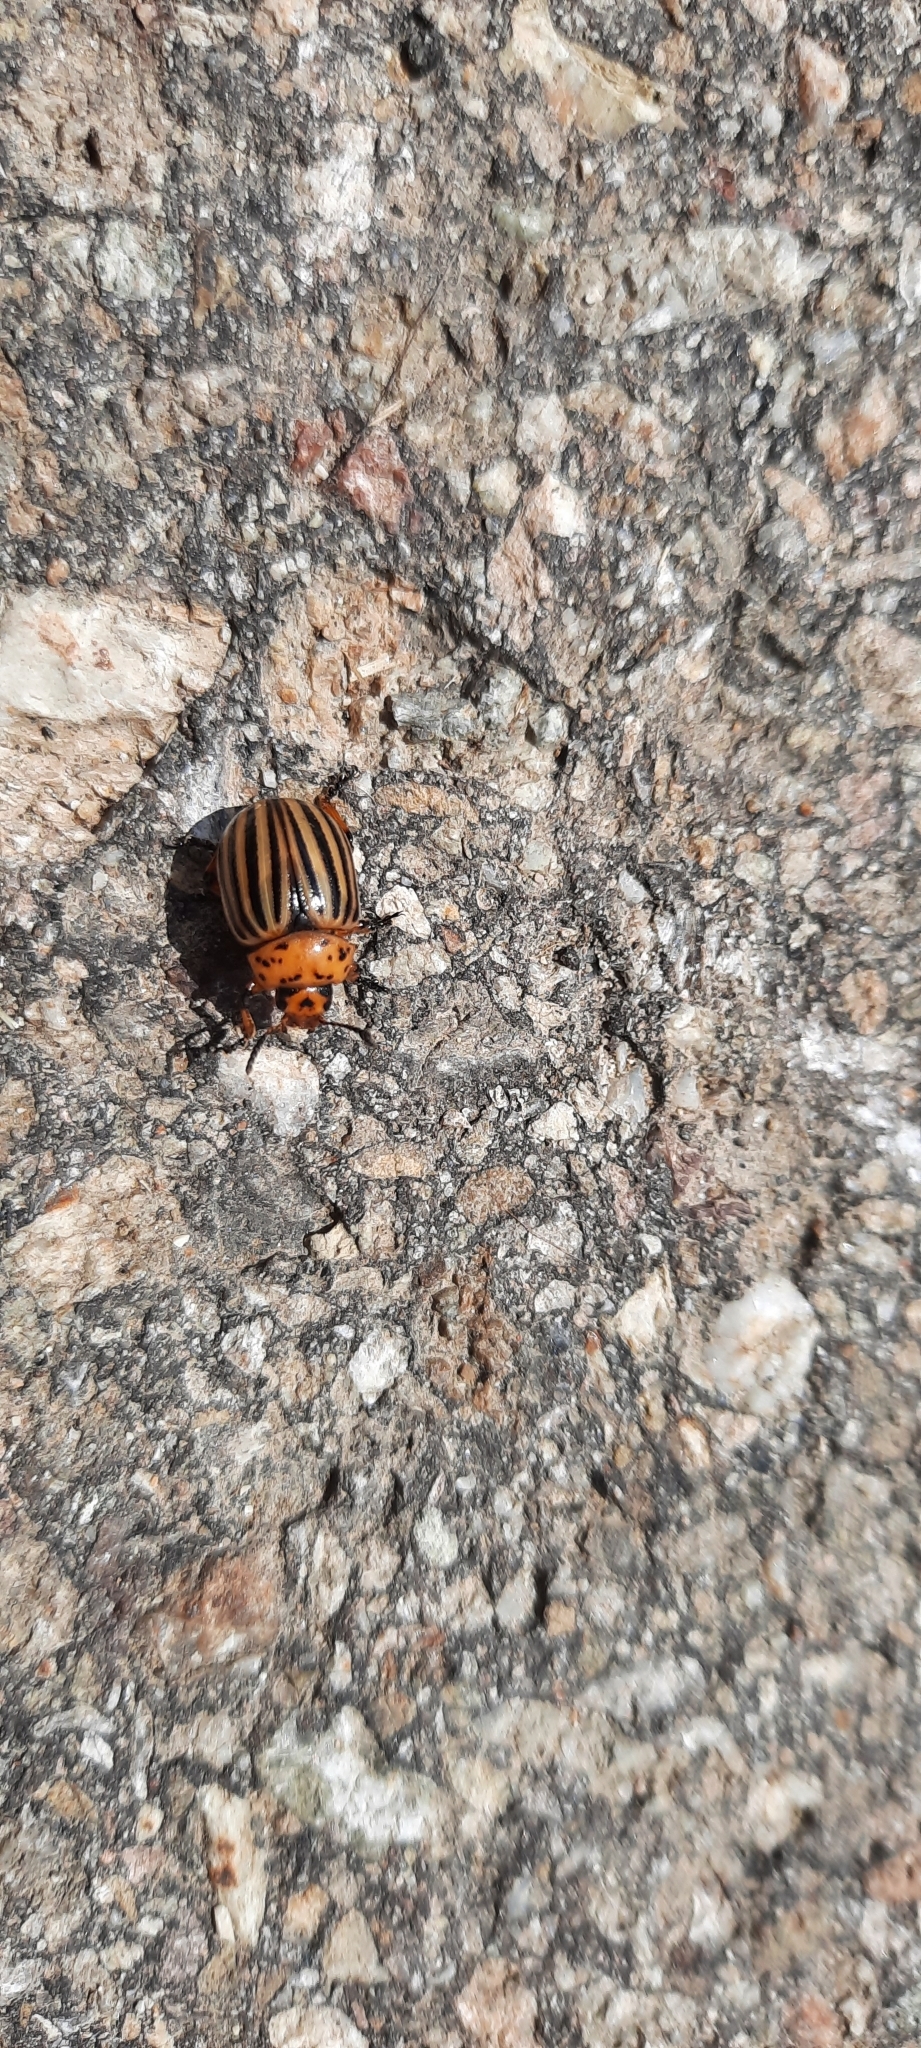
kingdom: Animalia
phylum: Arthropoda
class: Insecta
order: Coleoptera
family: Chrysomelidae
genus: Leptinotarsa
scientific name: Leptinotarsa decemlineata
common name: Colorado potato beetle
